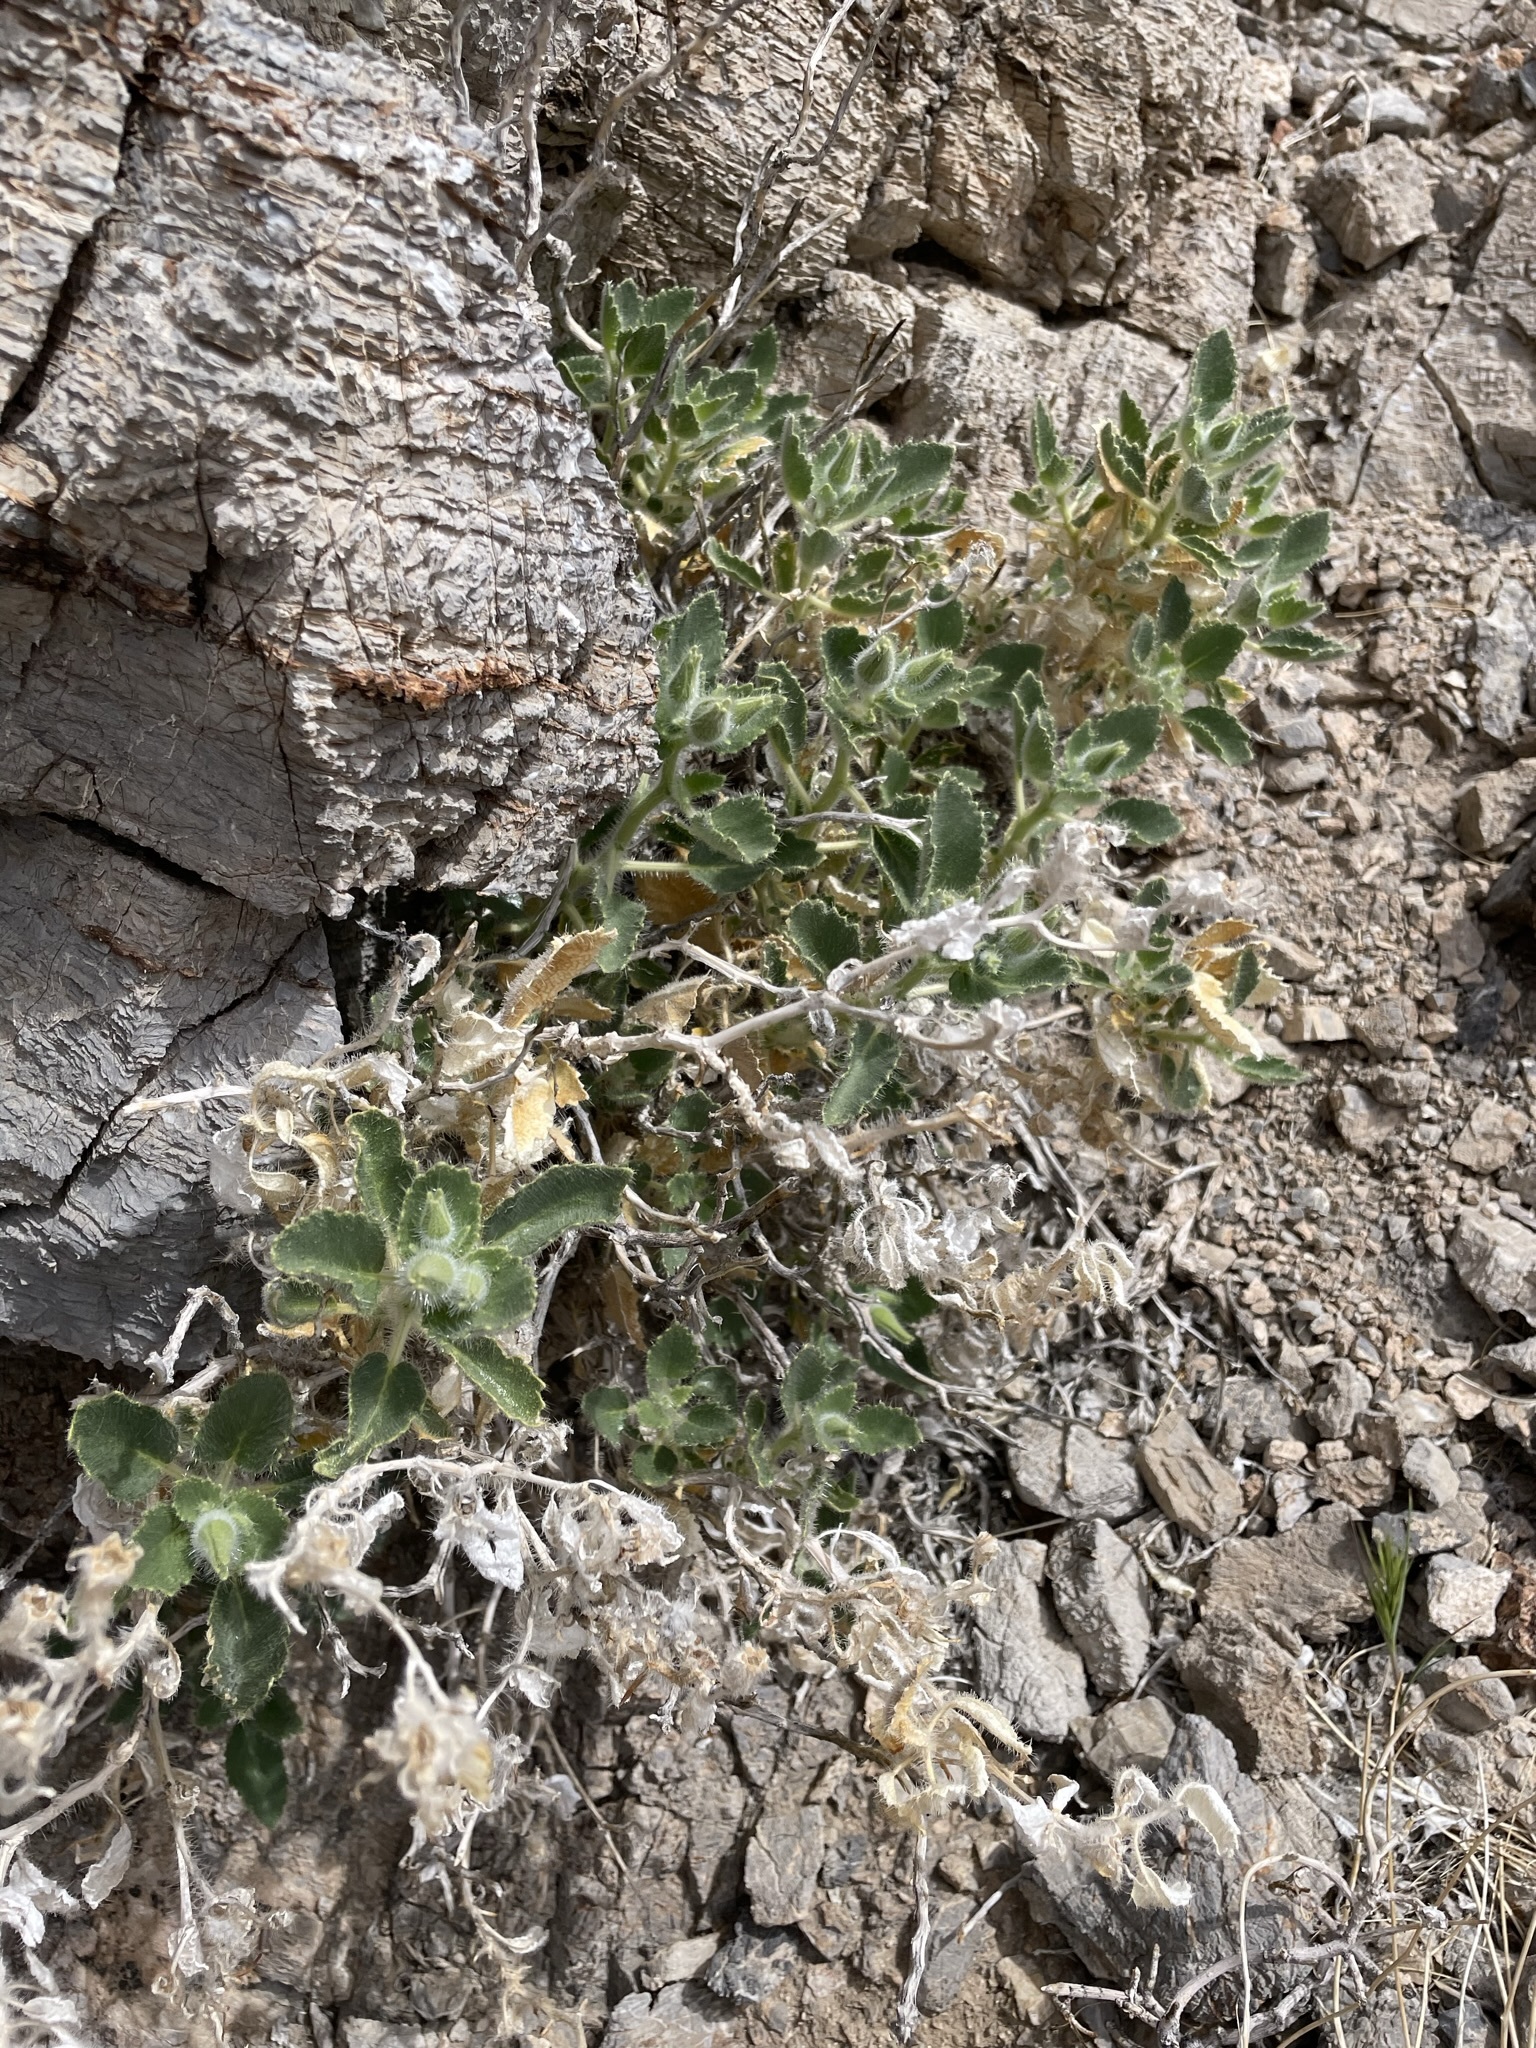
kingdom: Plantae
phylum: Tracheophyta
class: Magnoliopsida
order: Cornales
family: Loasaceae
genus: Eucnide
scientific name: Eucnide urens
